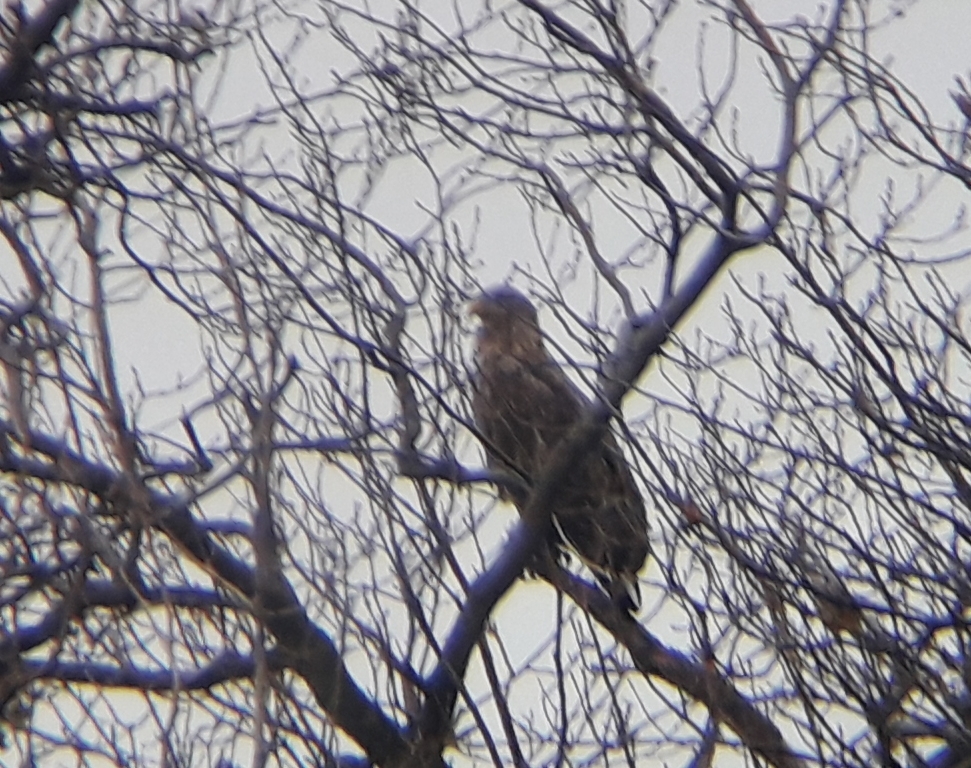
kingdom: Animalia
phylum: Chordata
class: Aves
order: Accipitriformes
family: Accipitridae
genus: Haliaeetus
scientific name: Haliaeetus albicilla
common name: White-tailed eagle
